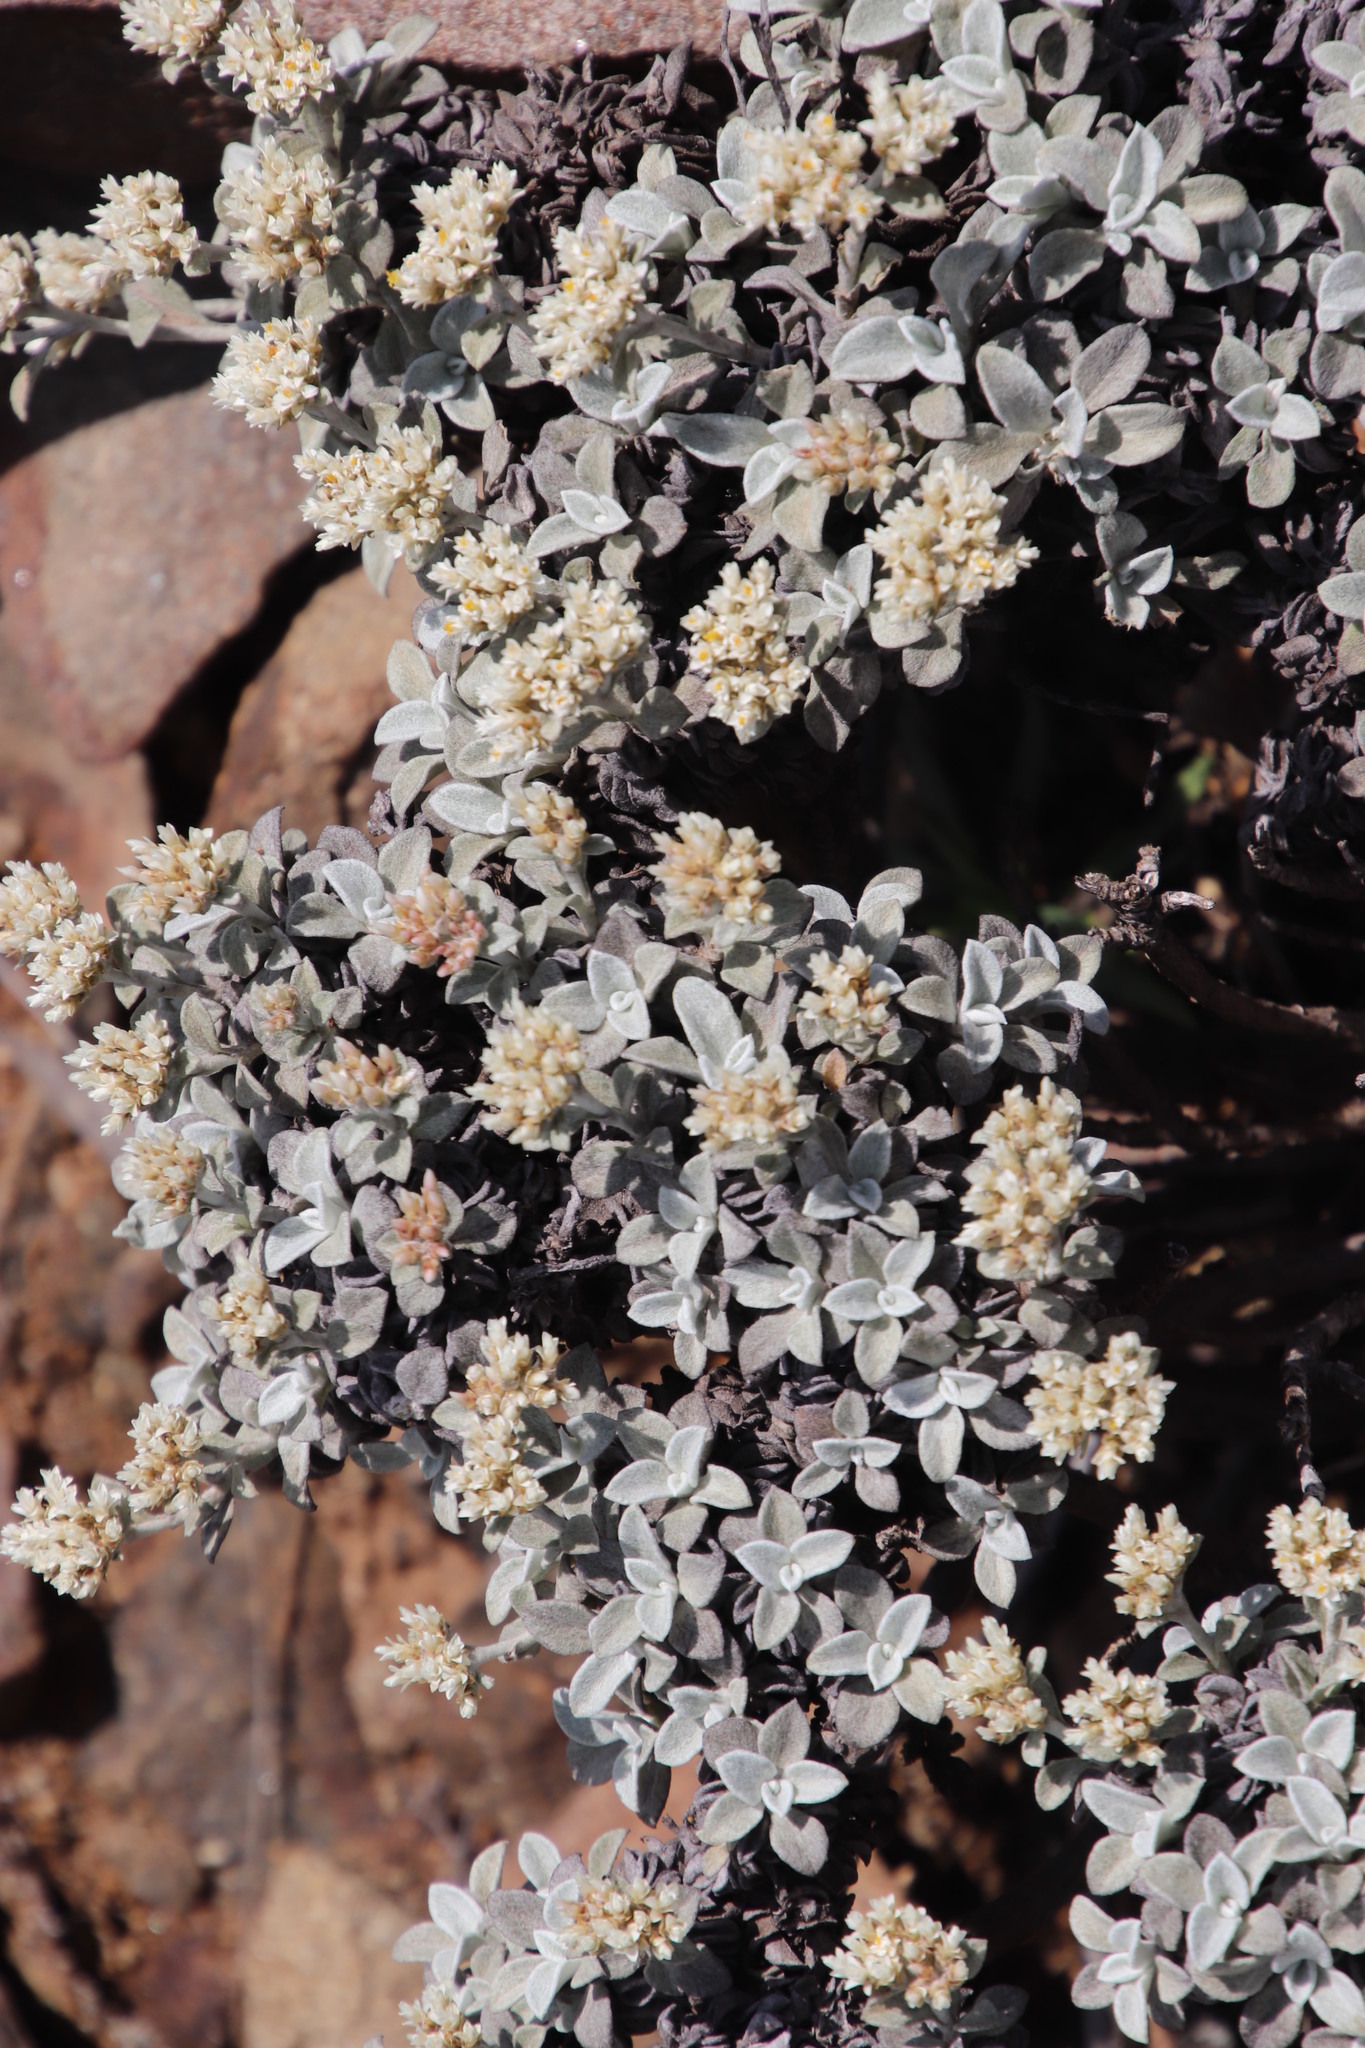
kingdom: Plantae
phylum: Tracheophyta
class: Magnoliopsida
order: Asterales
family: Asteraceae
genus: Helichrysum
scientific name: Helichrysum sutherlandii
